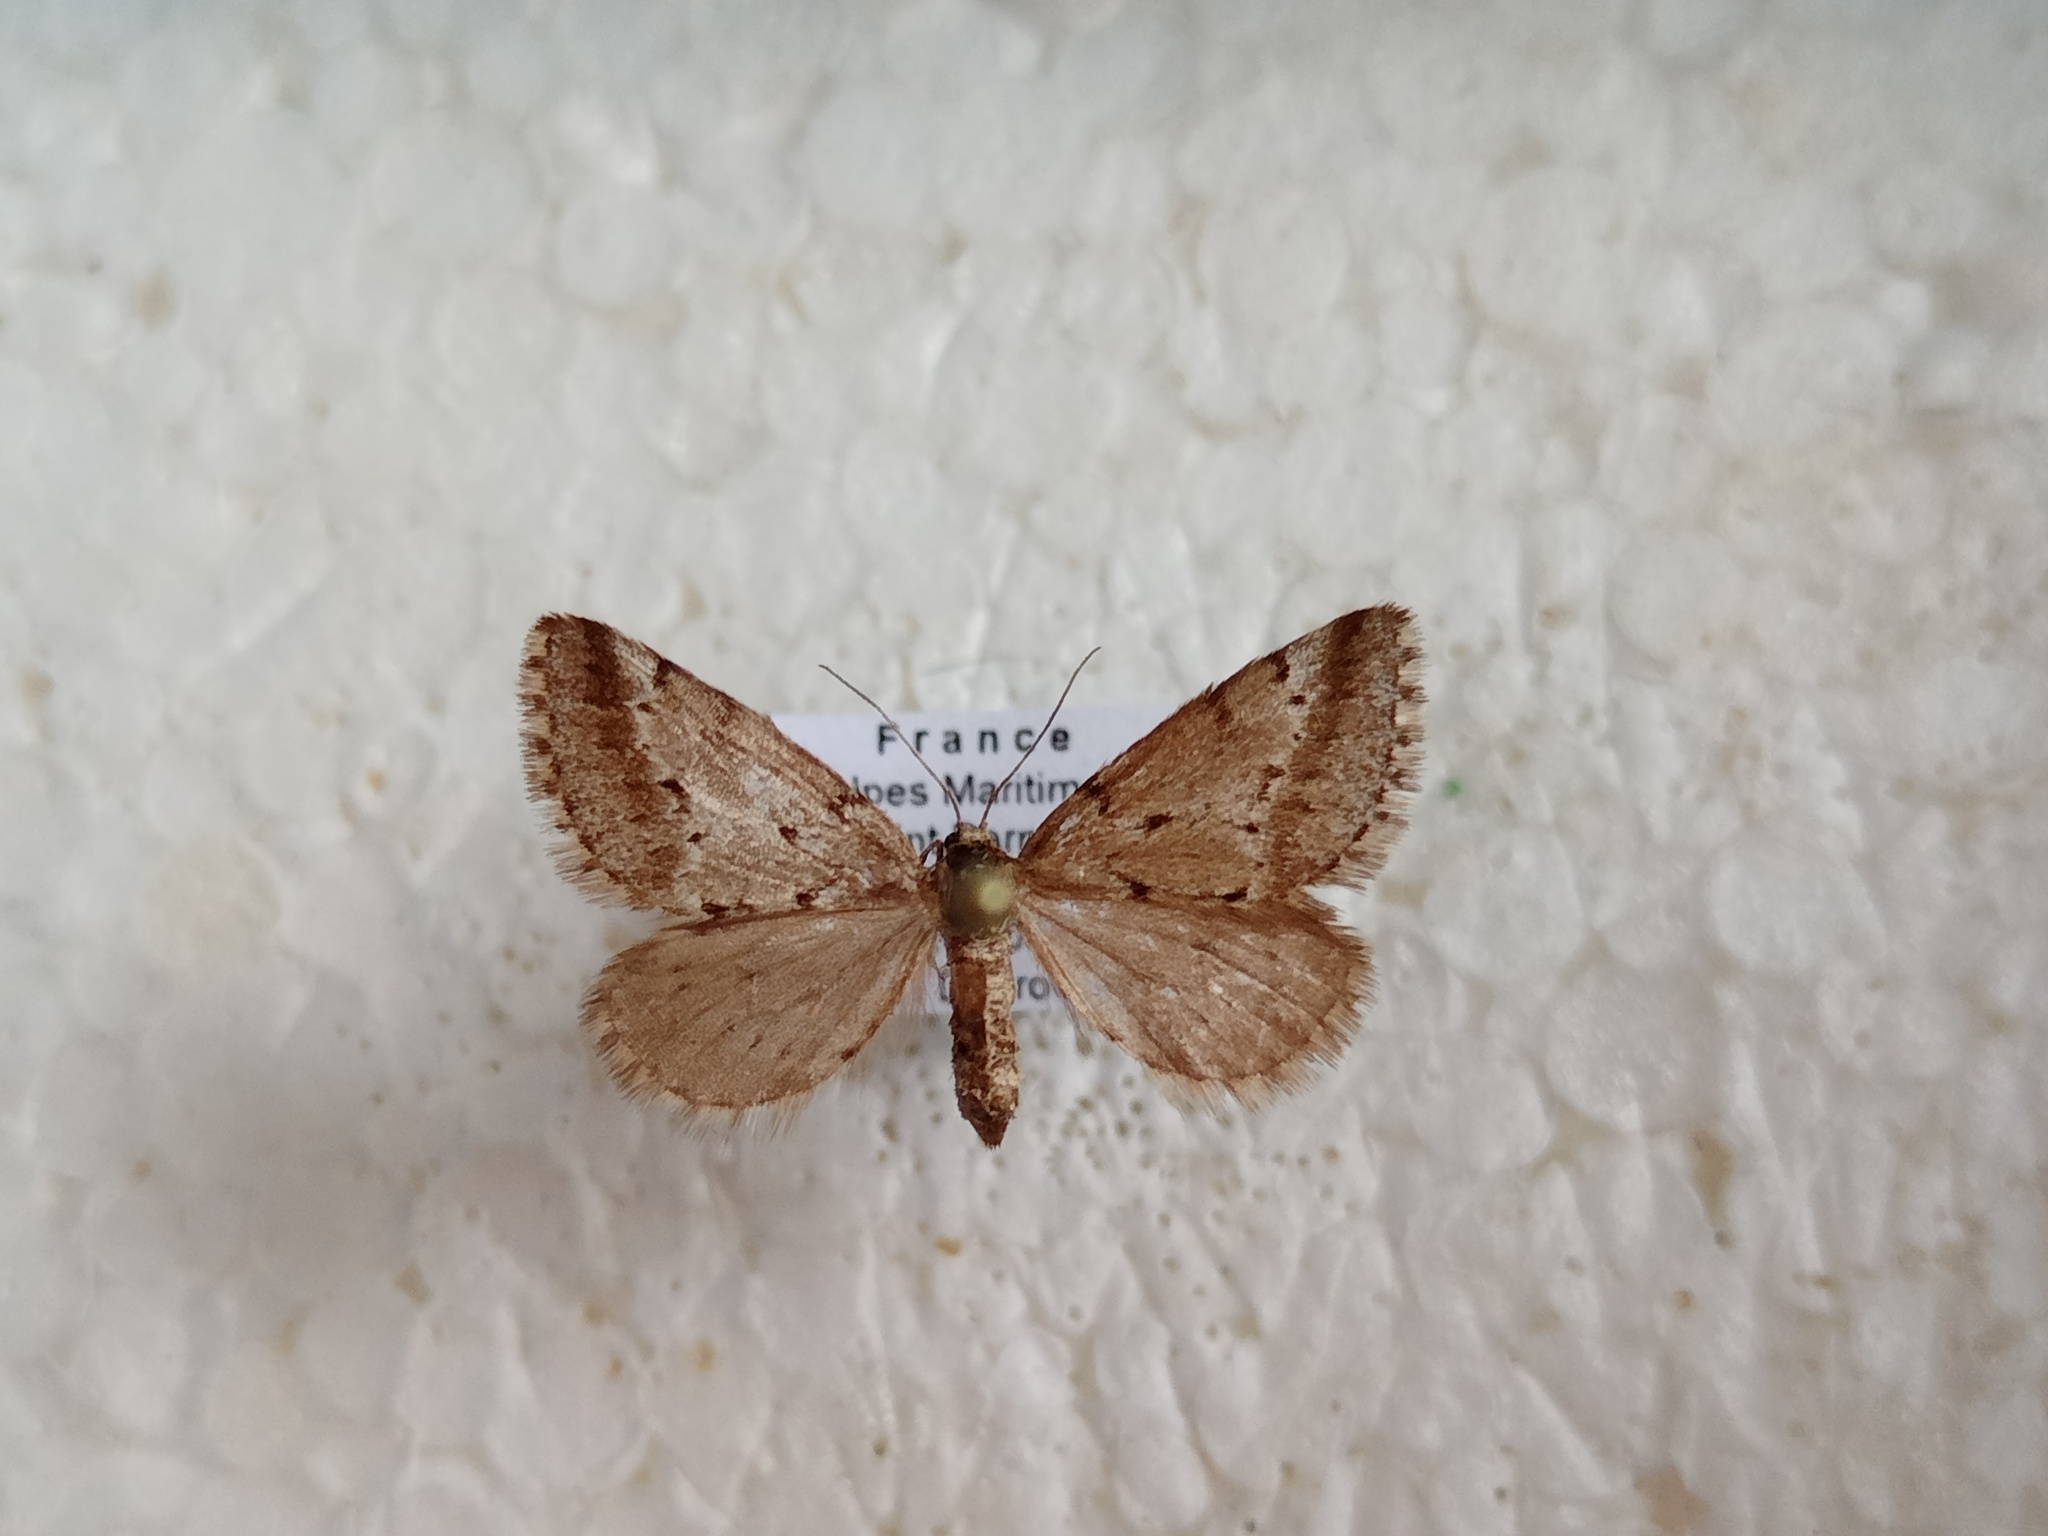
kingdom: Animalia
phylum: Arthropoda
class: Insecta
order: Lepidoptera
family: Geometridae
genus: Tephronia
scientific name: Tephronia oranaria
